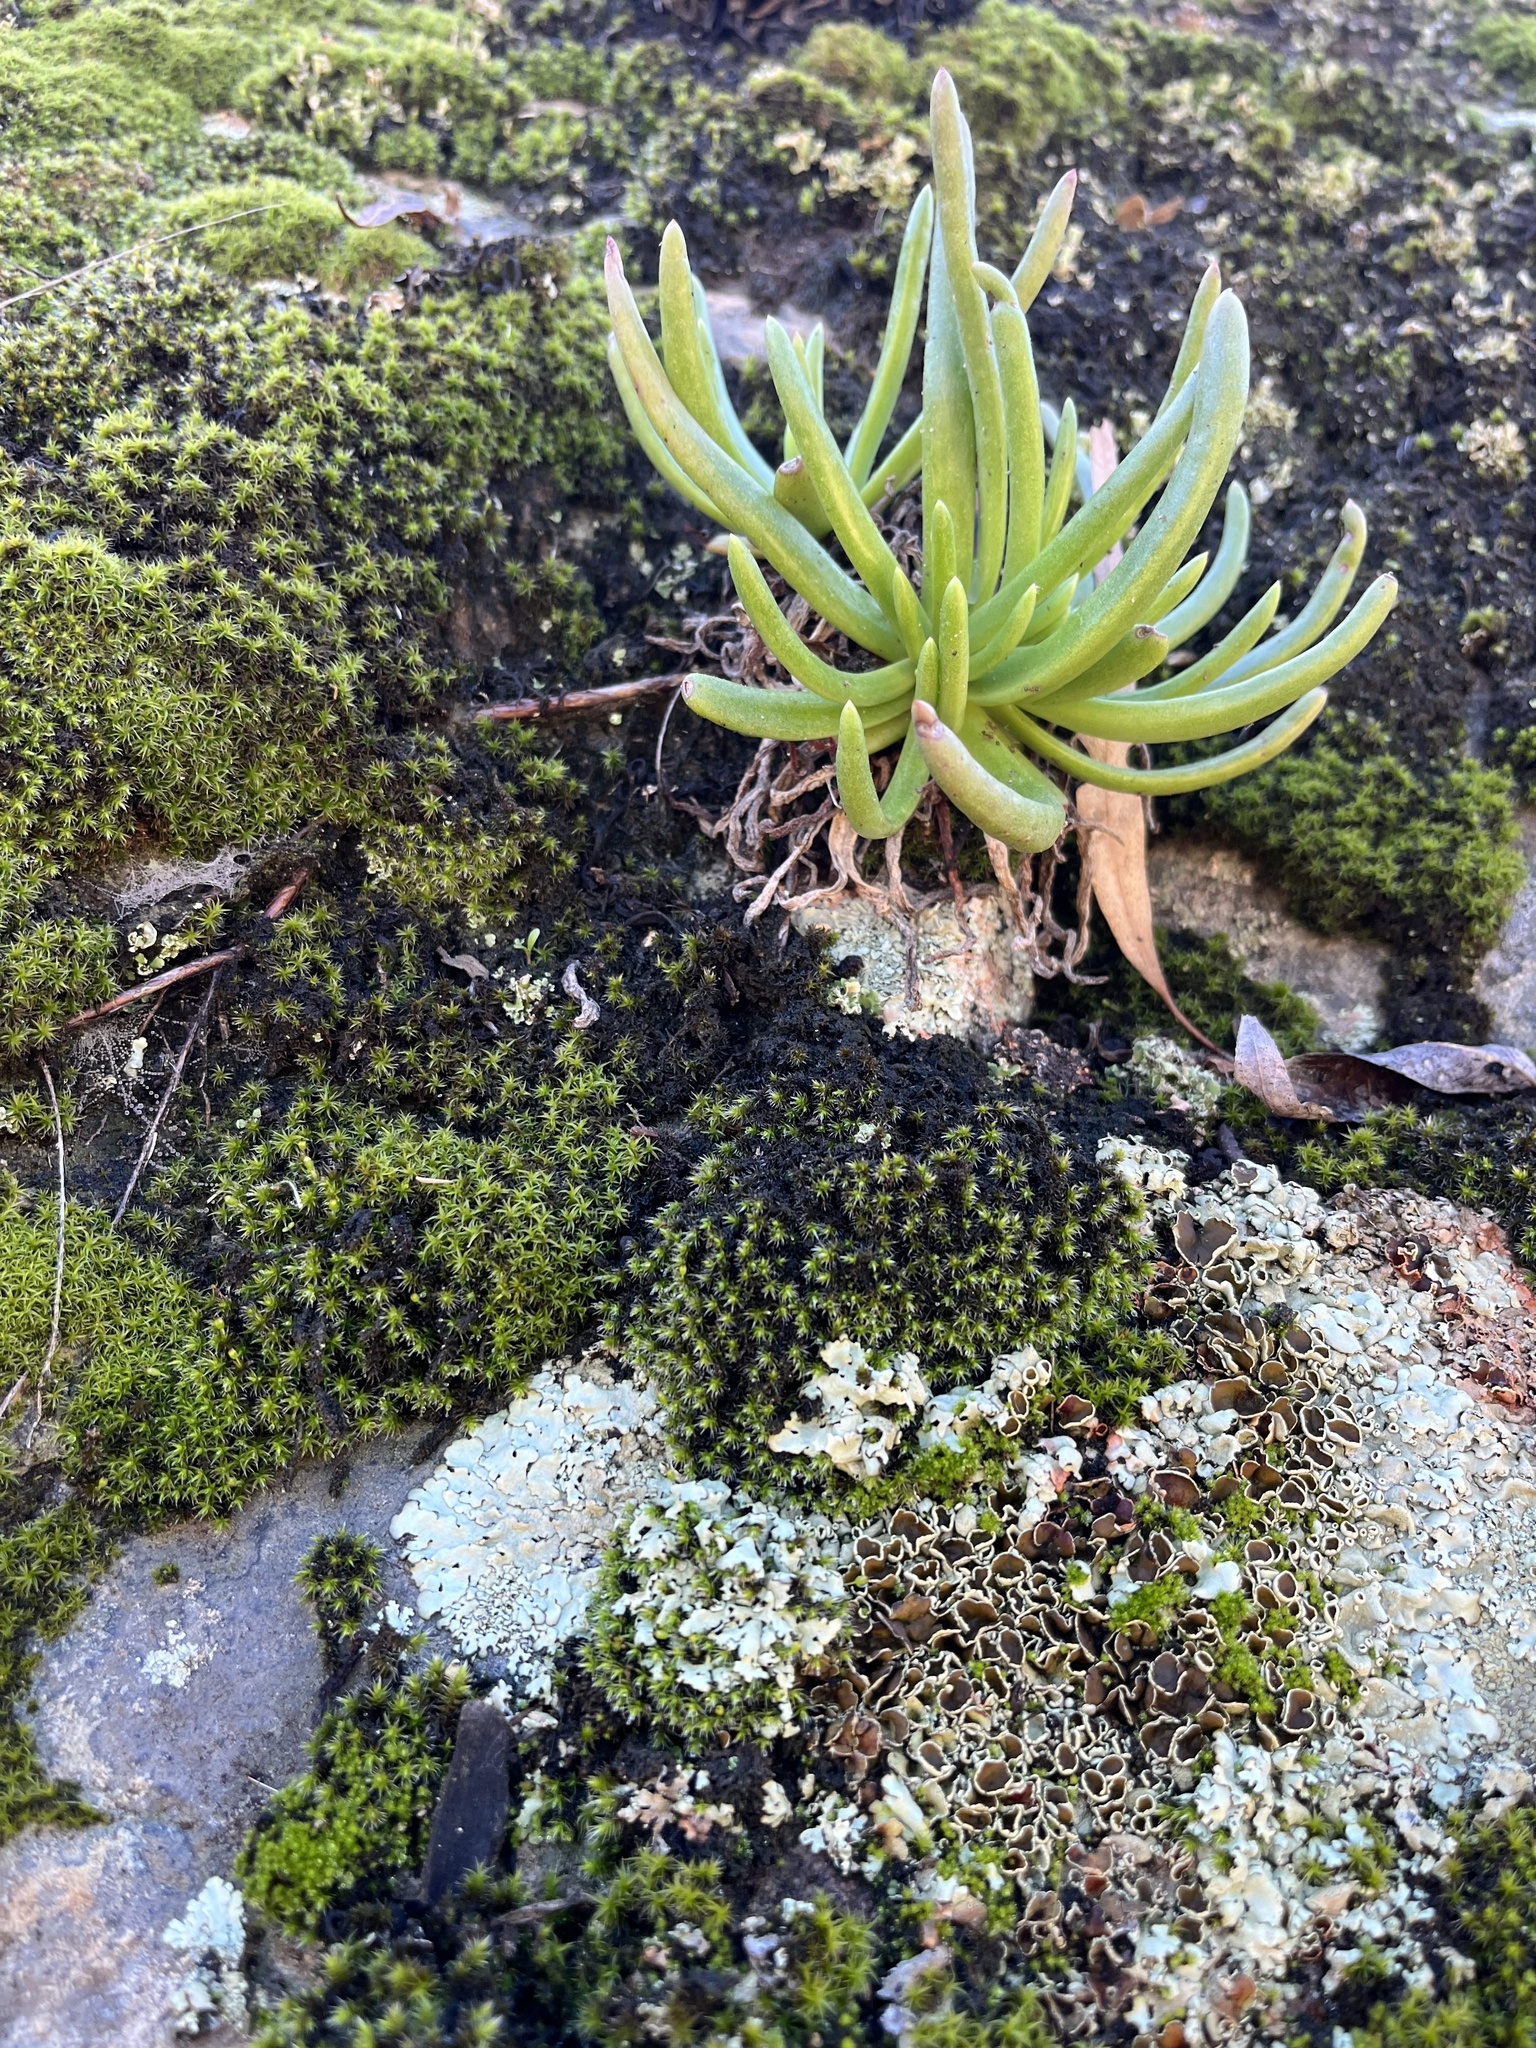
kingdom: Plantae
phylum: Tracheophyta
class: Magnoliopsida
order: Saxifragales
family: Crassulaceae
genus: Dudleya
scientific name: Dudleya viscida
